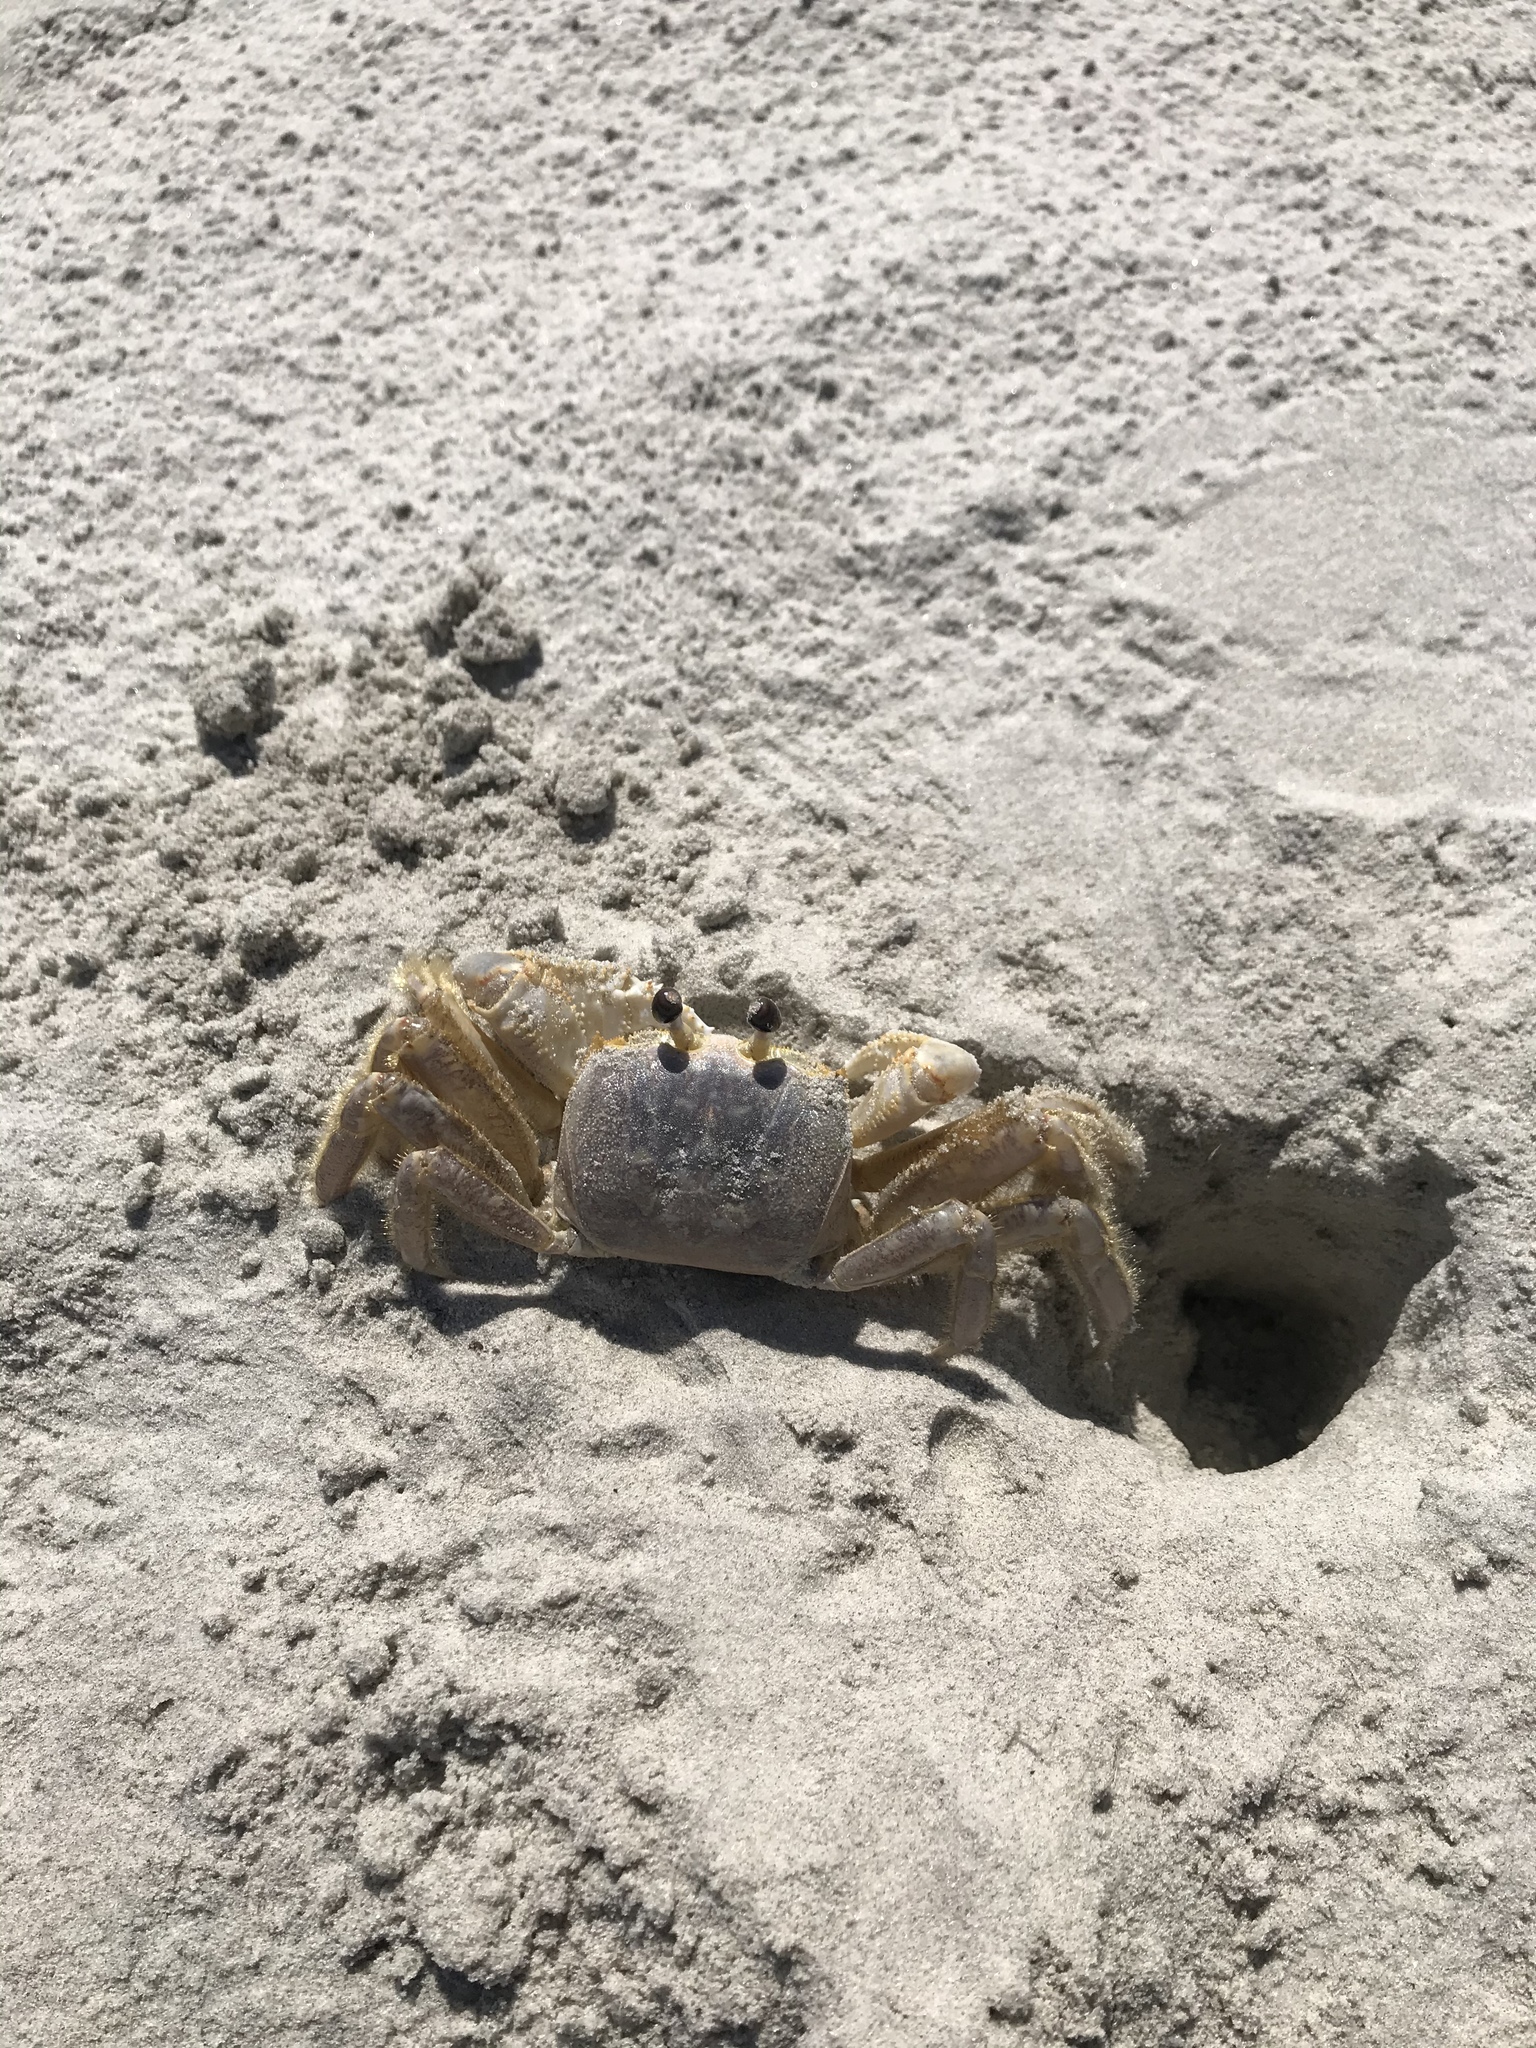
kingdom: Animalia
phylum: Arthropoda
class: Malacostraca
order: Decapoda
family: Ocypodidae
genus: Ocypode
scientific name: Ocypode quadrata
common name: Ghost crab
